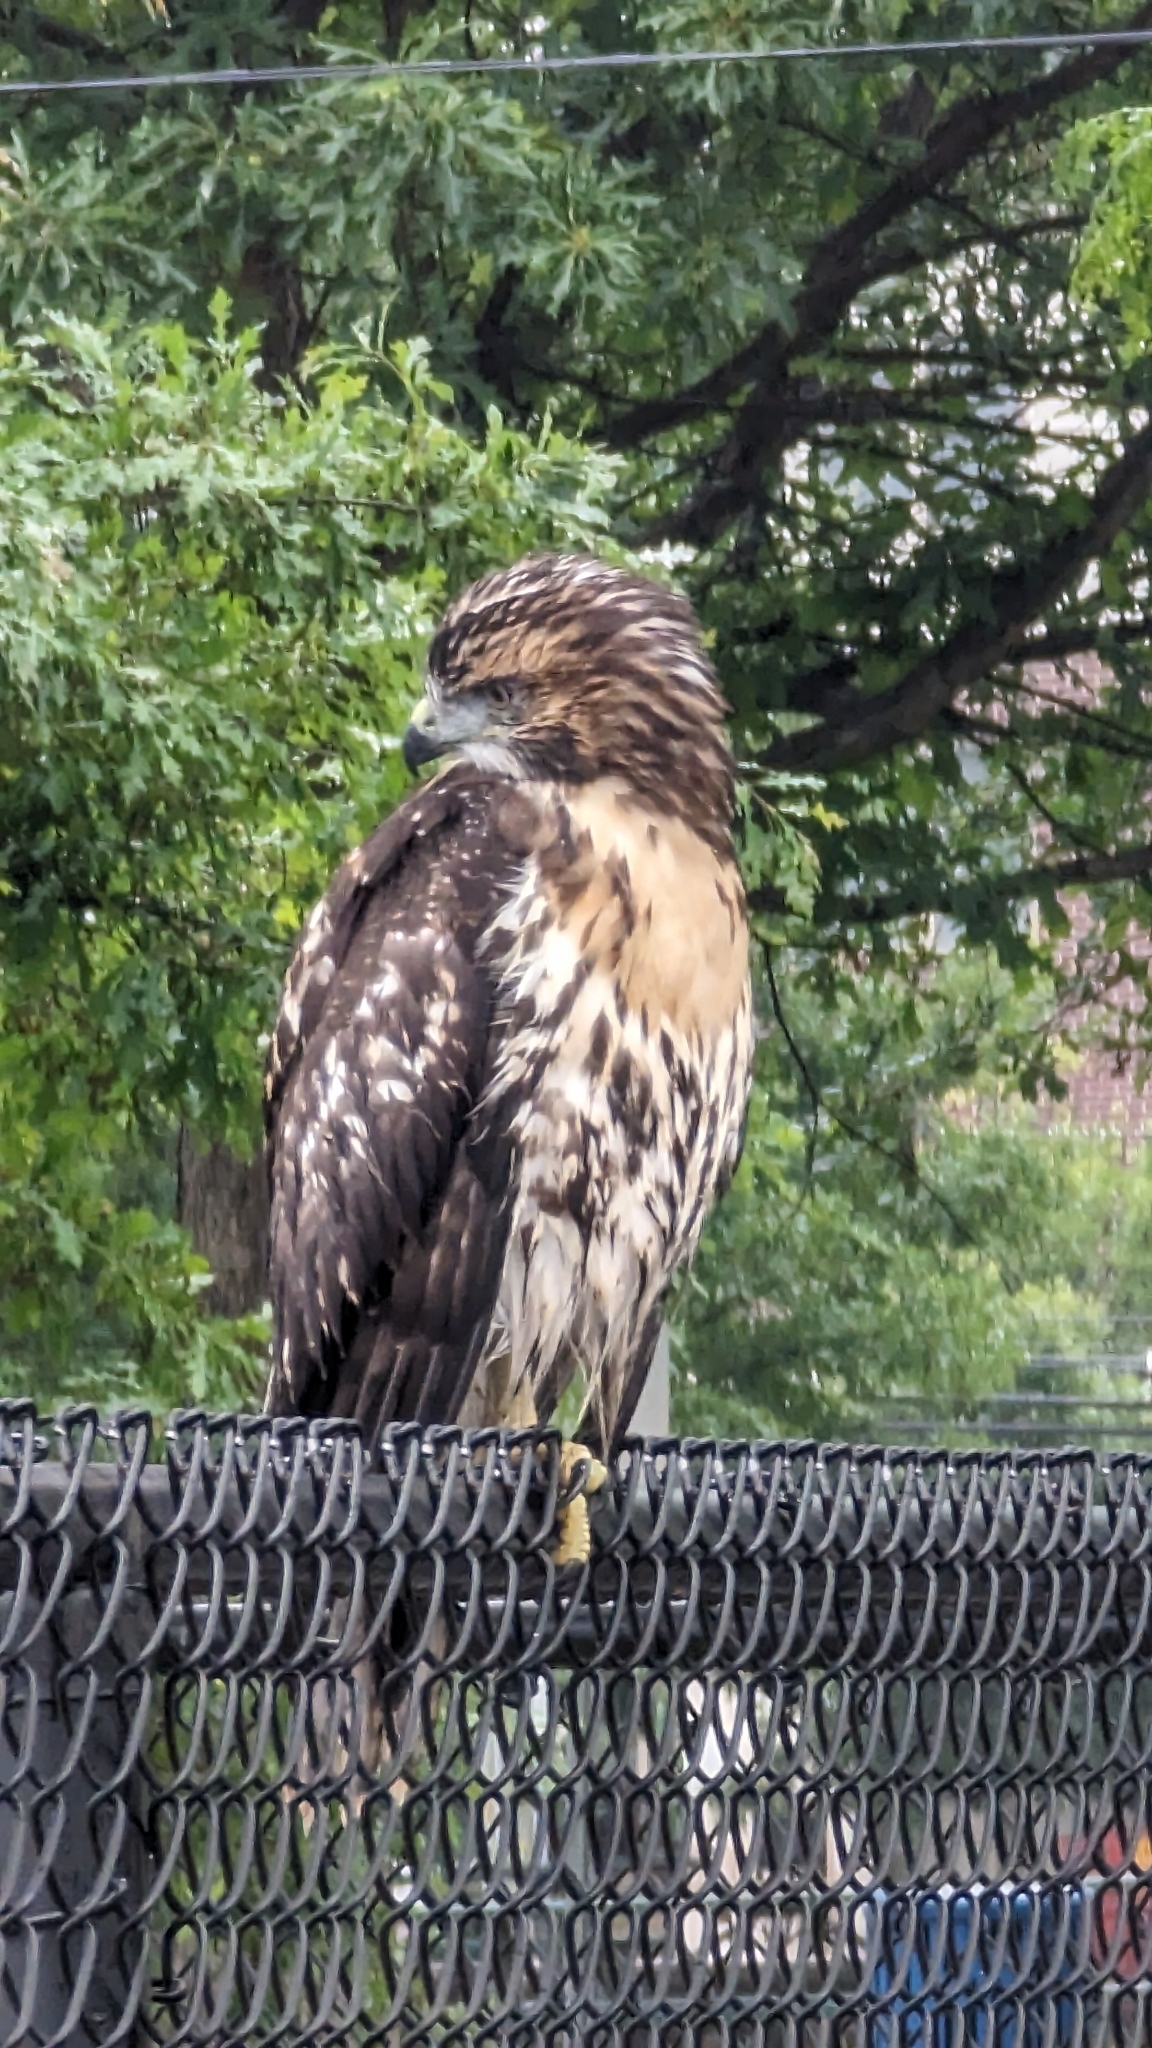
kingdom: Animalia
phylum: Chordata
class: Aves
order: Accipitriformes
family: Accipitridae
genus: Buteo
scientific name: Buteo jamaicensis
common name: Red-tailed hawk
